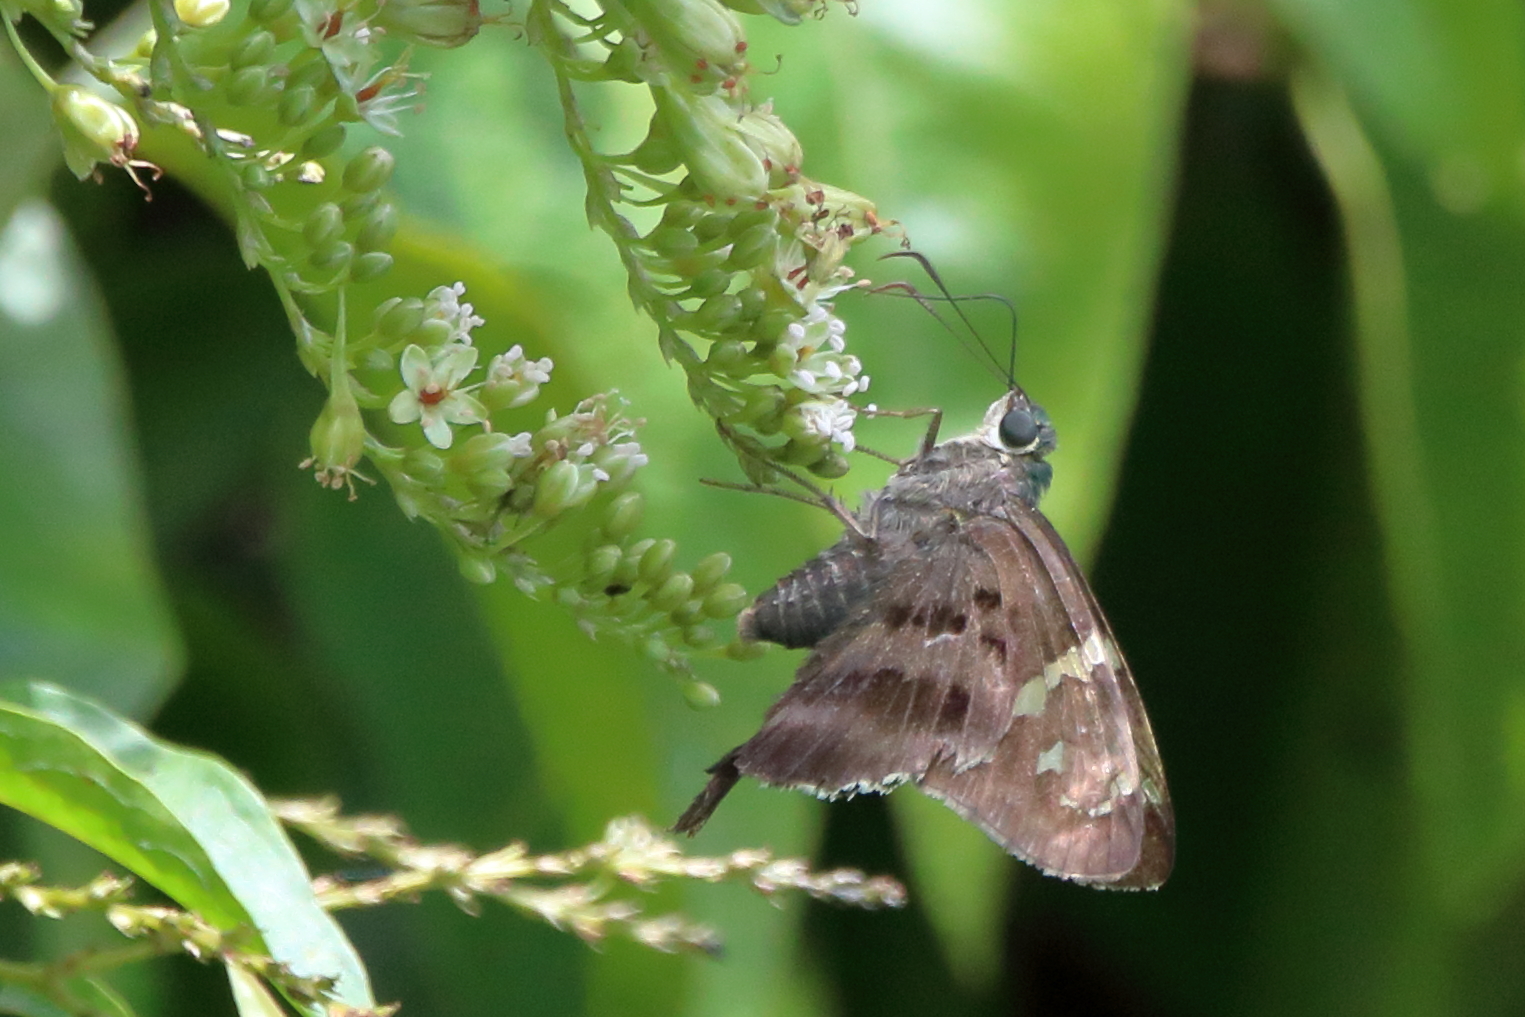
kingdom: Animalia
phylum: Arthropoda
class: Insecta
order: Lepidoptera
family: Hesperiidae
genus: Urbanus
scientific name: Urbanus proteus
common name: Long-tailed skipper
